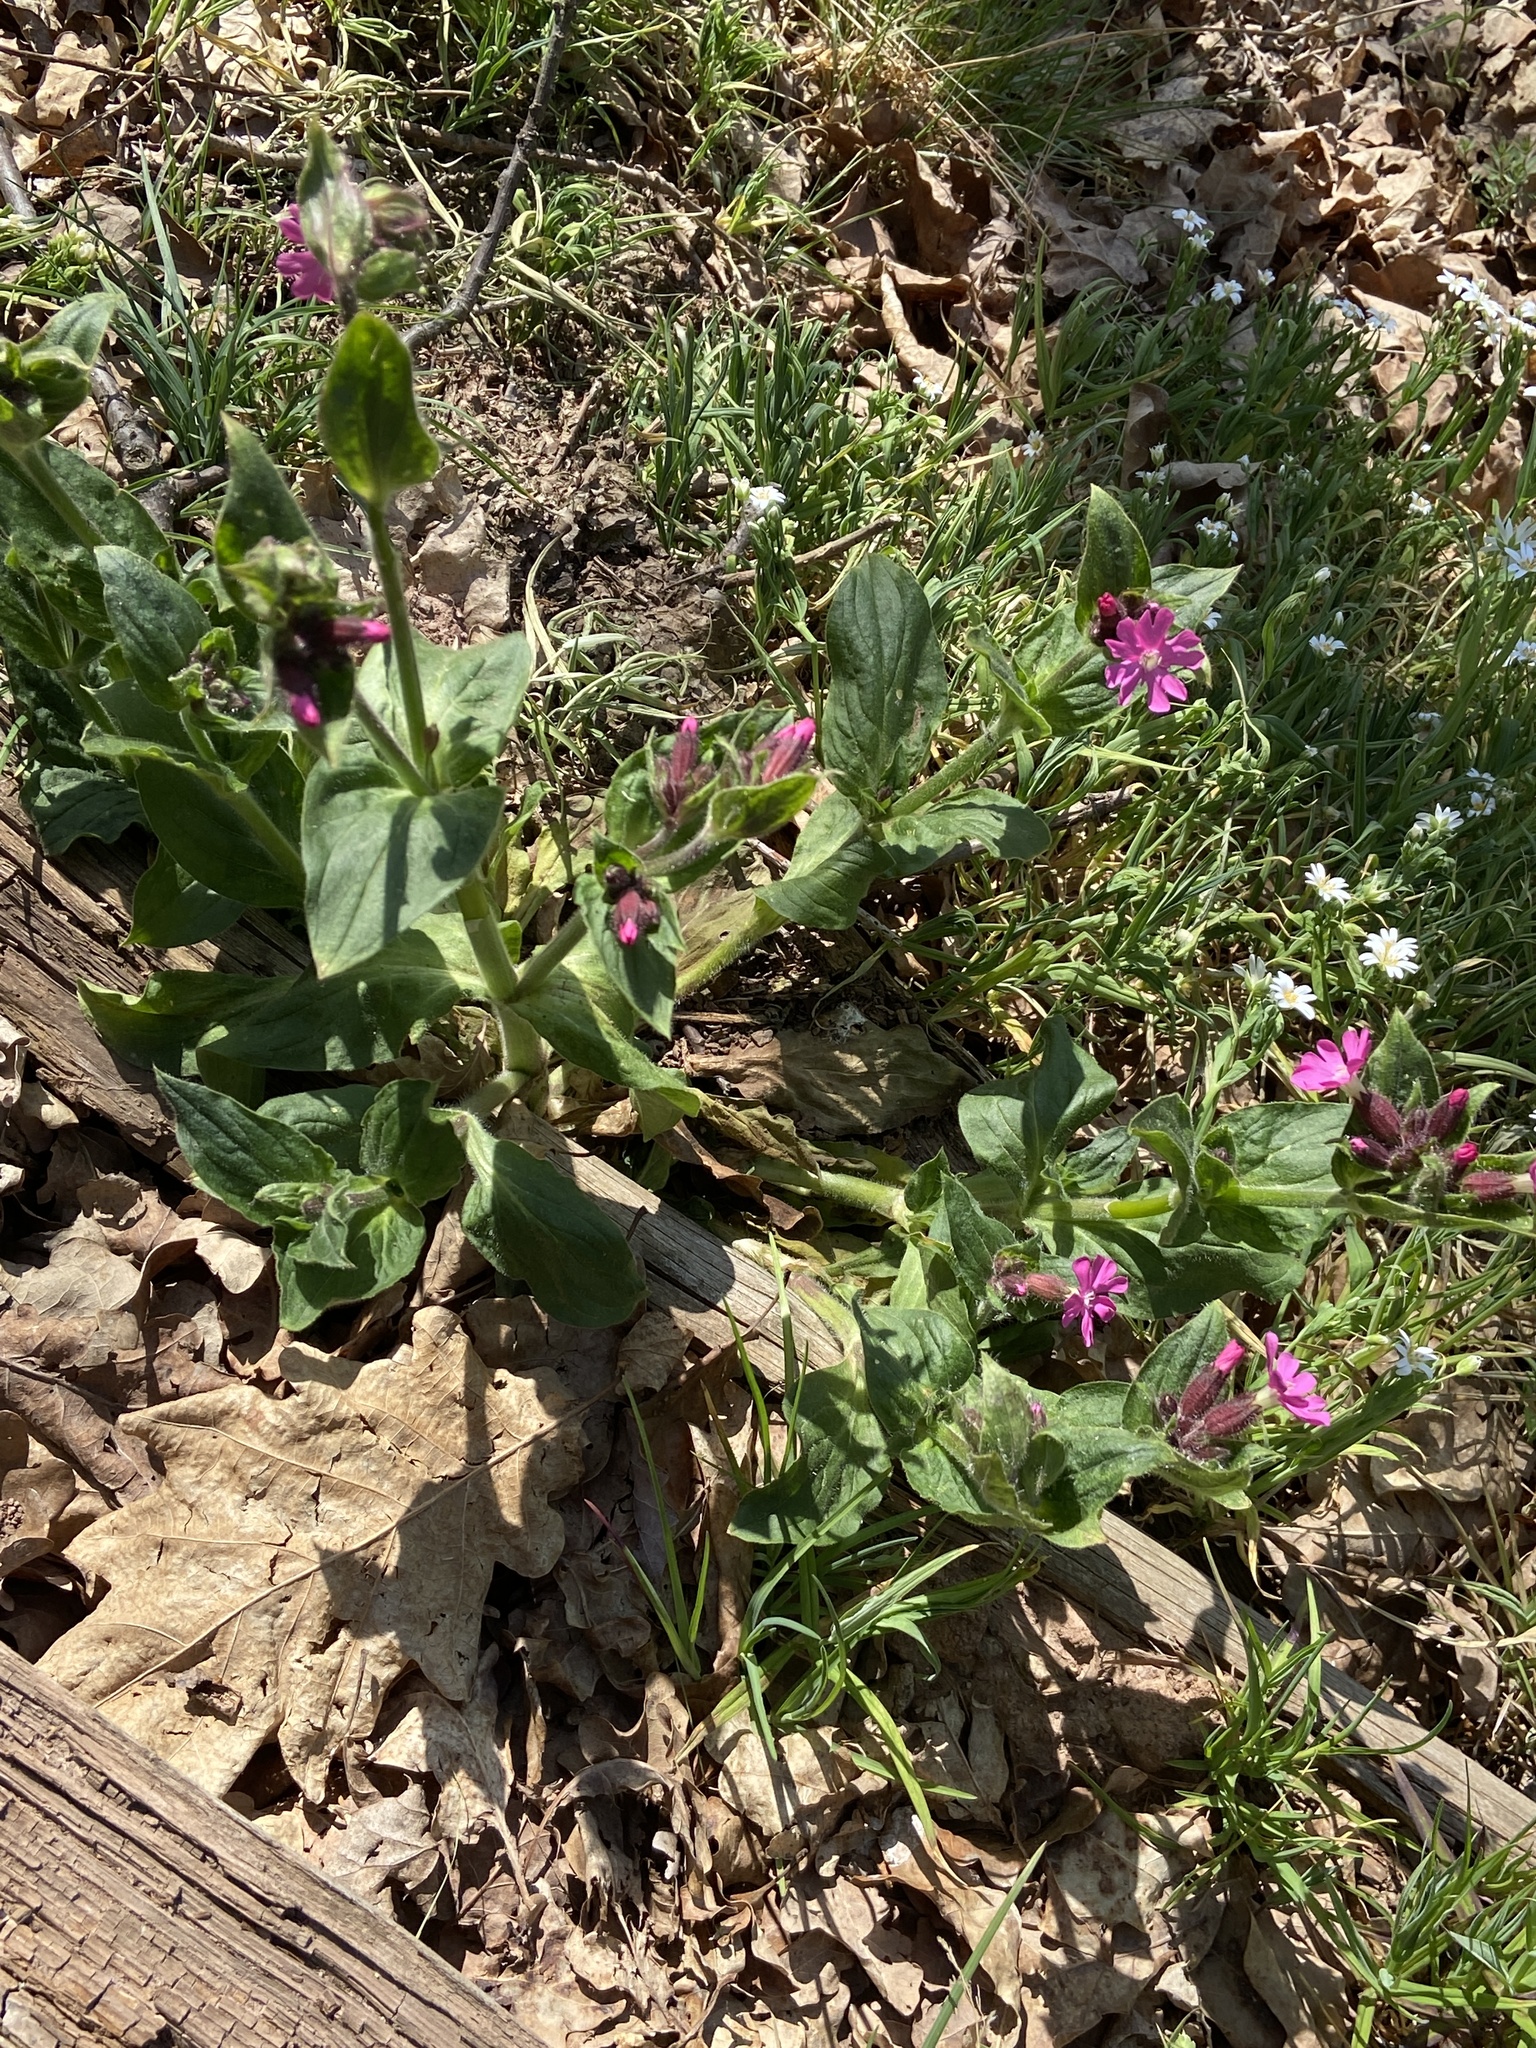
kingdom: Plantae
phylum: Tracheophyta
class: Magnoliopsida
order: Caryophyllales
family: Caryophyllaceae
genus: Silene
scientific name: Silene dioica
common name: Red campion
